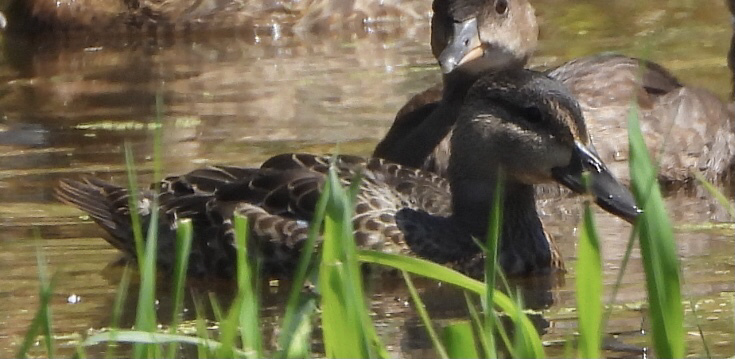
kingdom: Animalia
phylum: Chordata
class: Aves
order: Anseriformes
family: Anatidae
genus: Spatula
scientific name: Spatula discors
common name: Blue-winged teal
